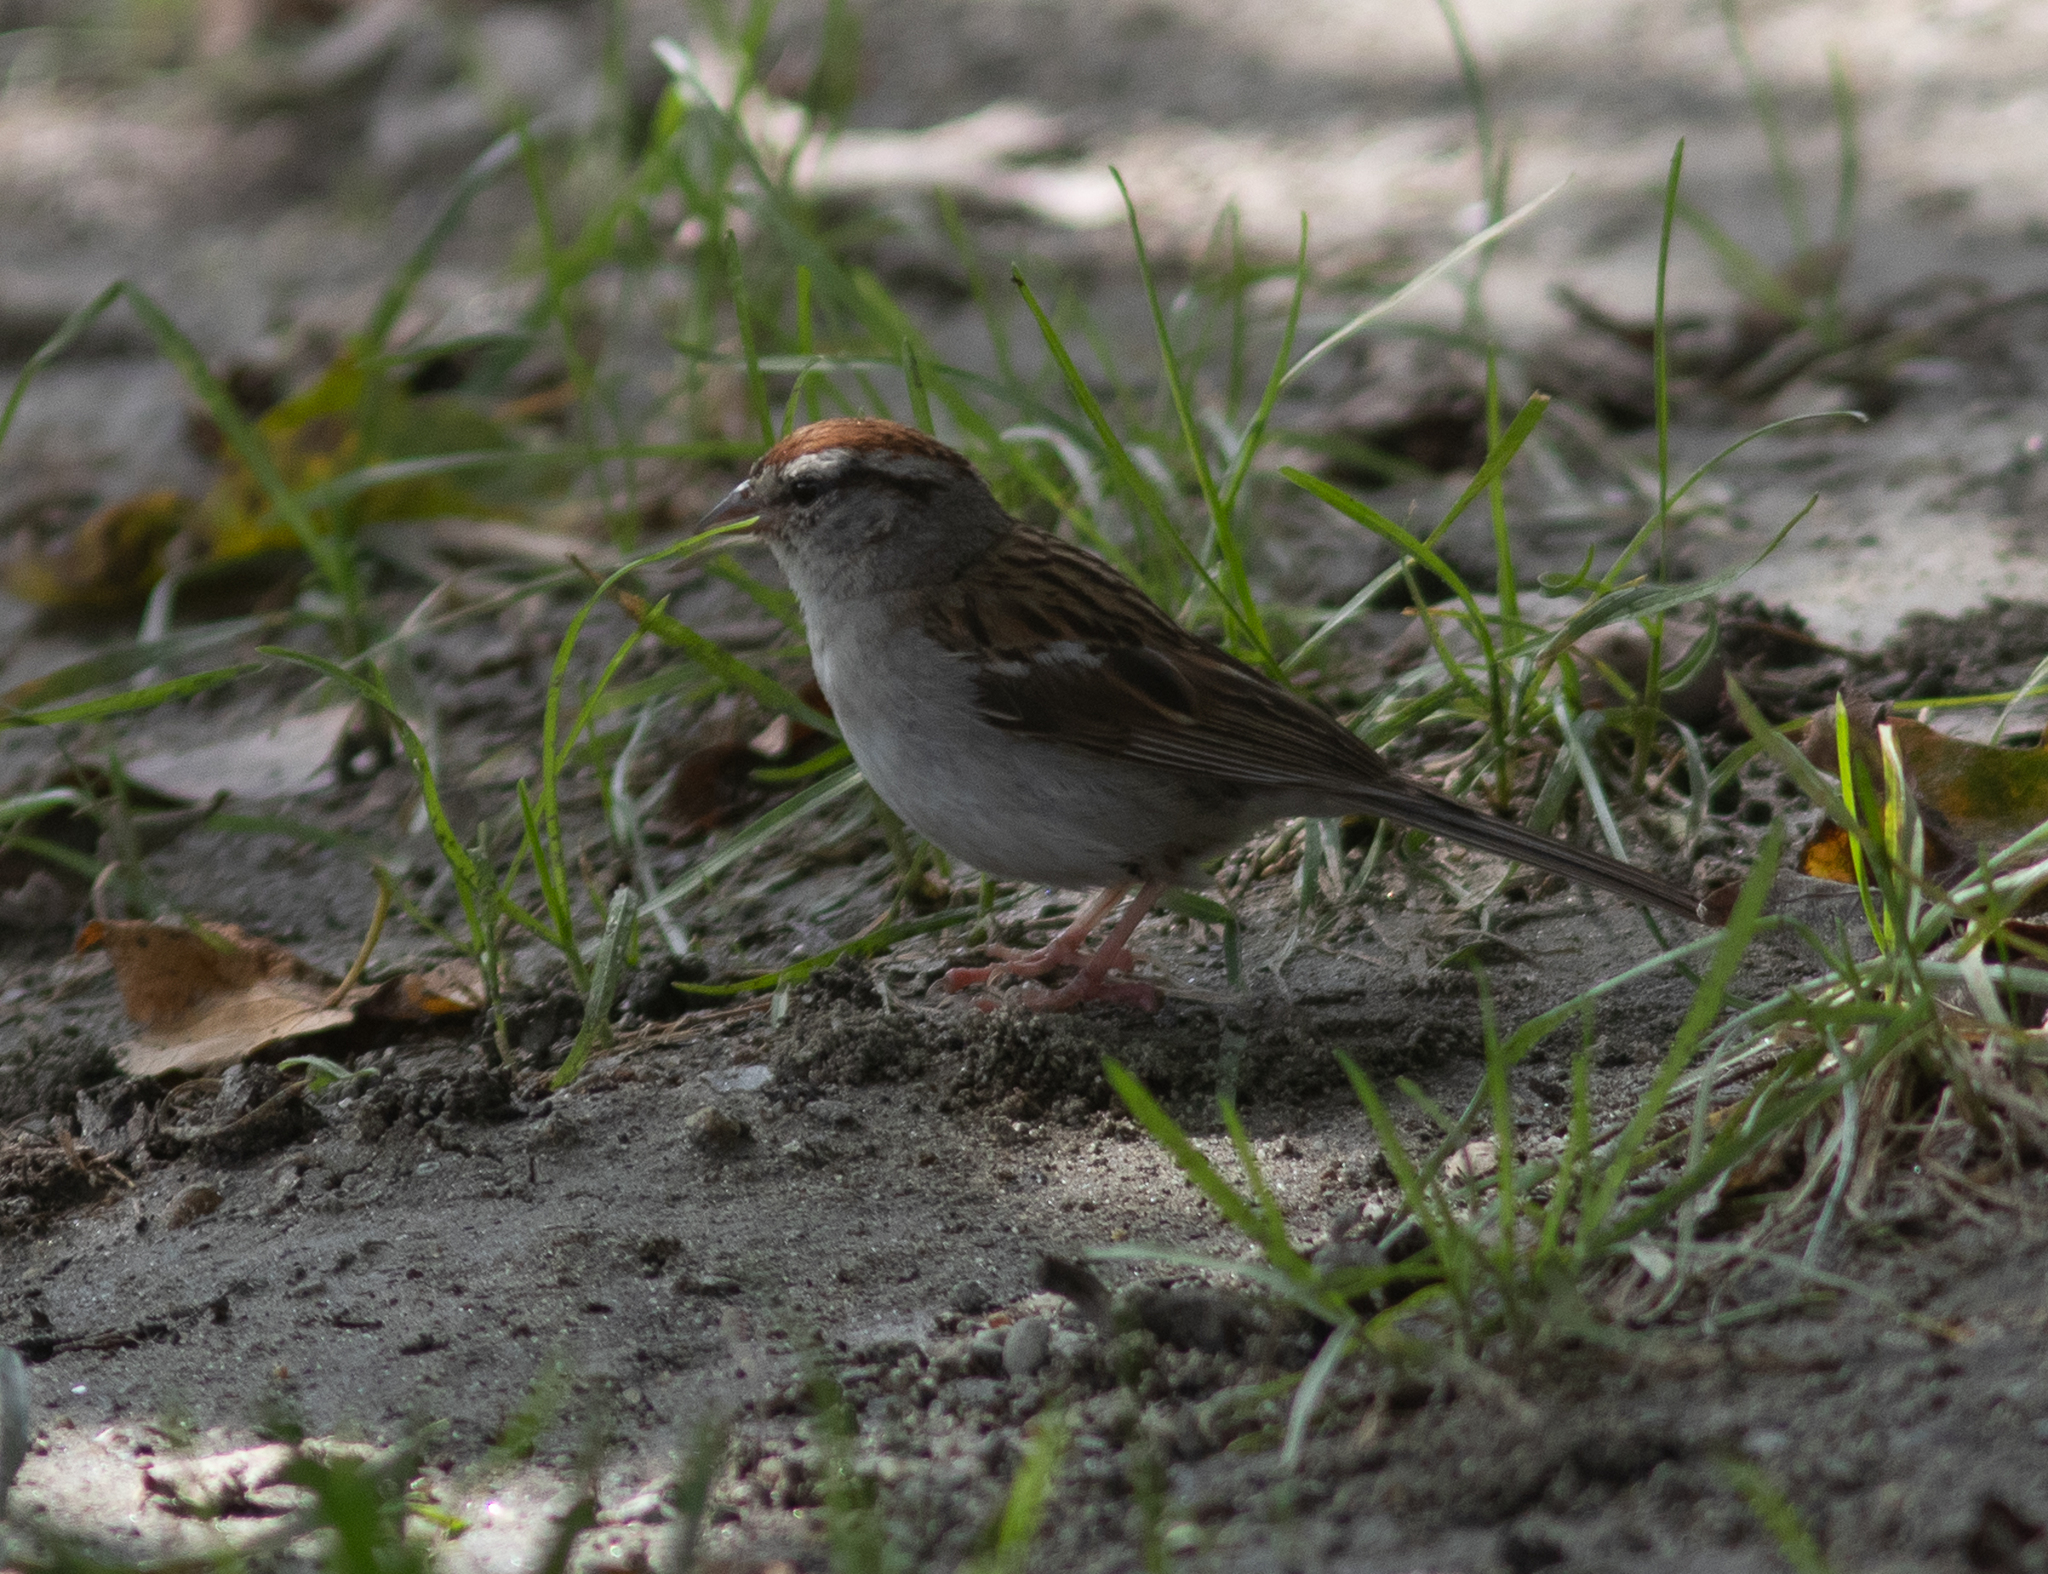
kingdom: Animalia
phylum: Chordata
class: Aves
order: Passeriformes
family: Passerellidae
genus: Spizella
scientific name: Spizella passerina
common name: Chipping sparrow
